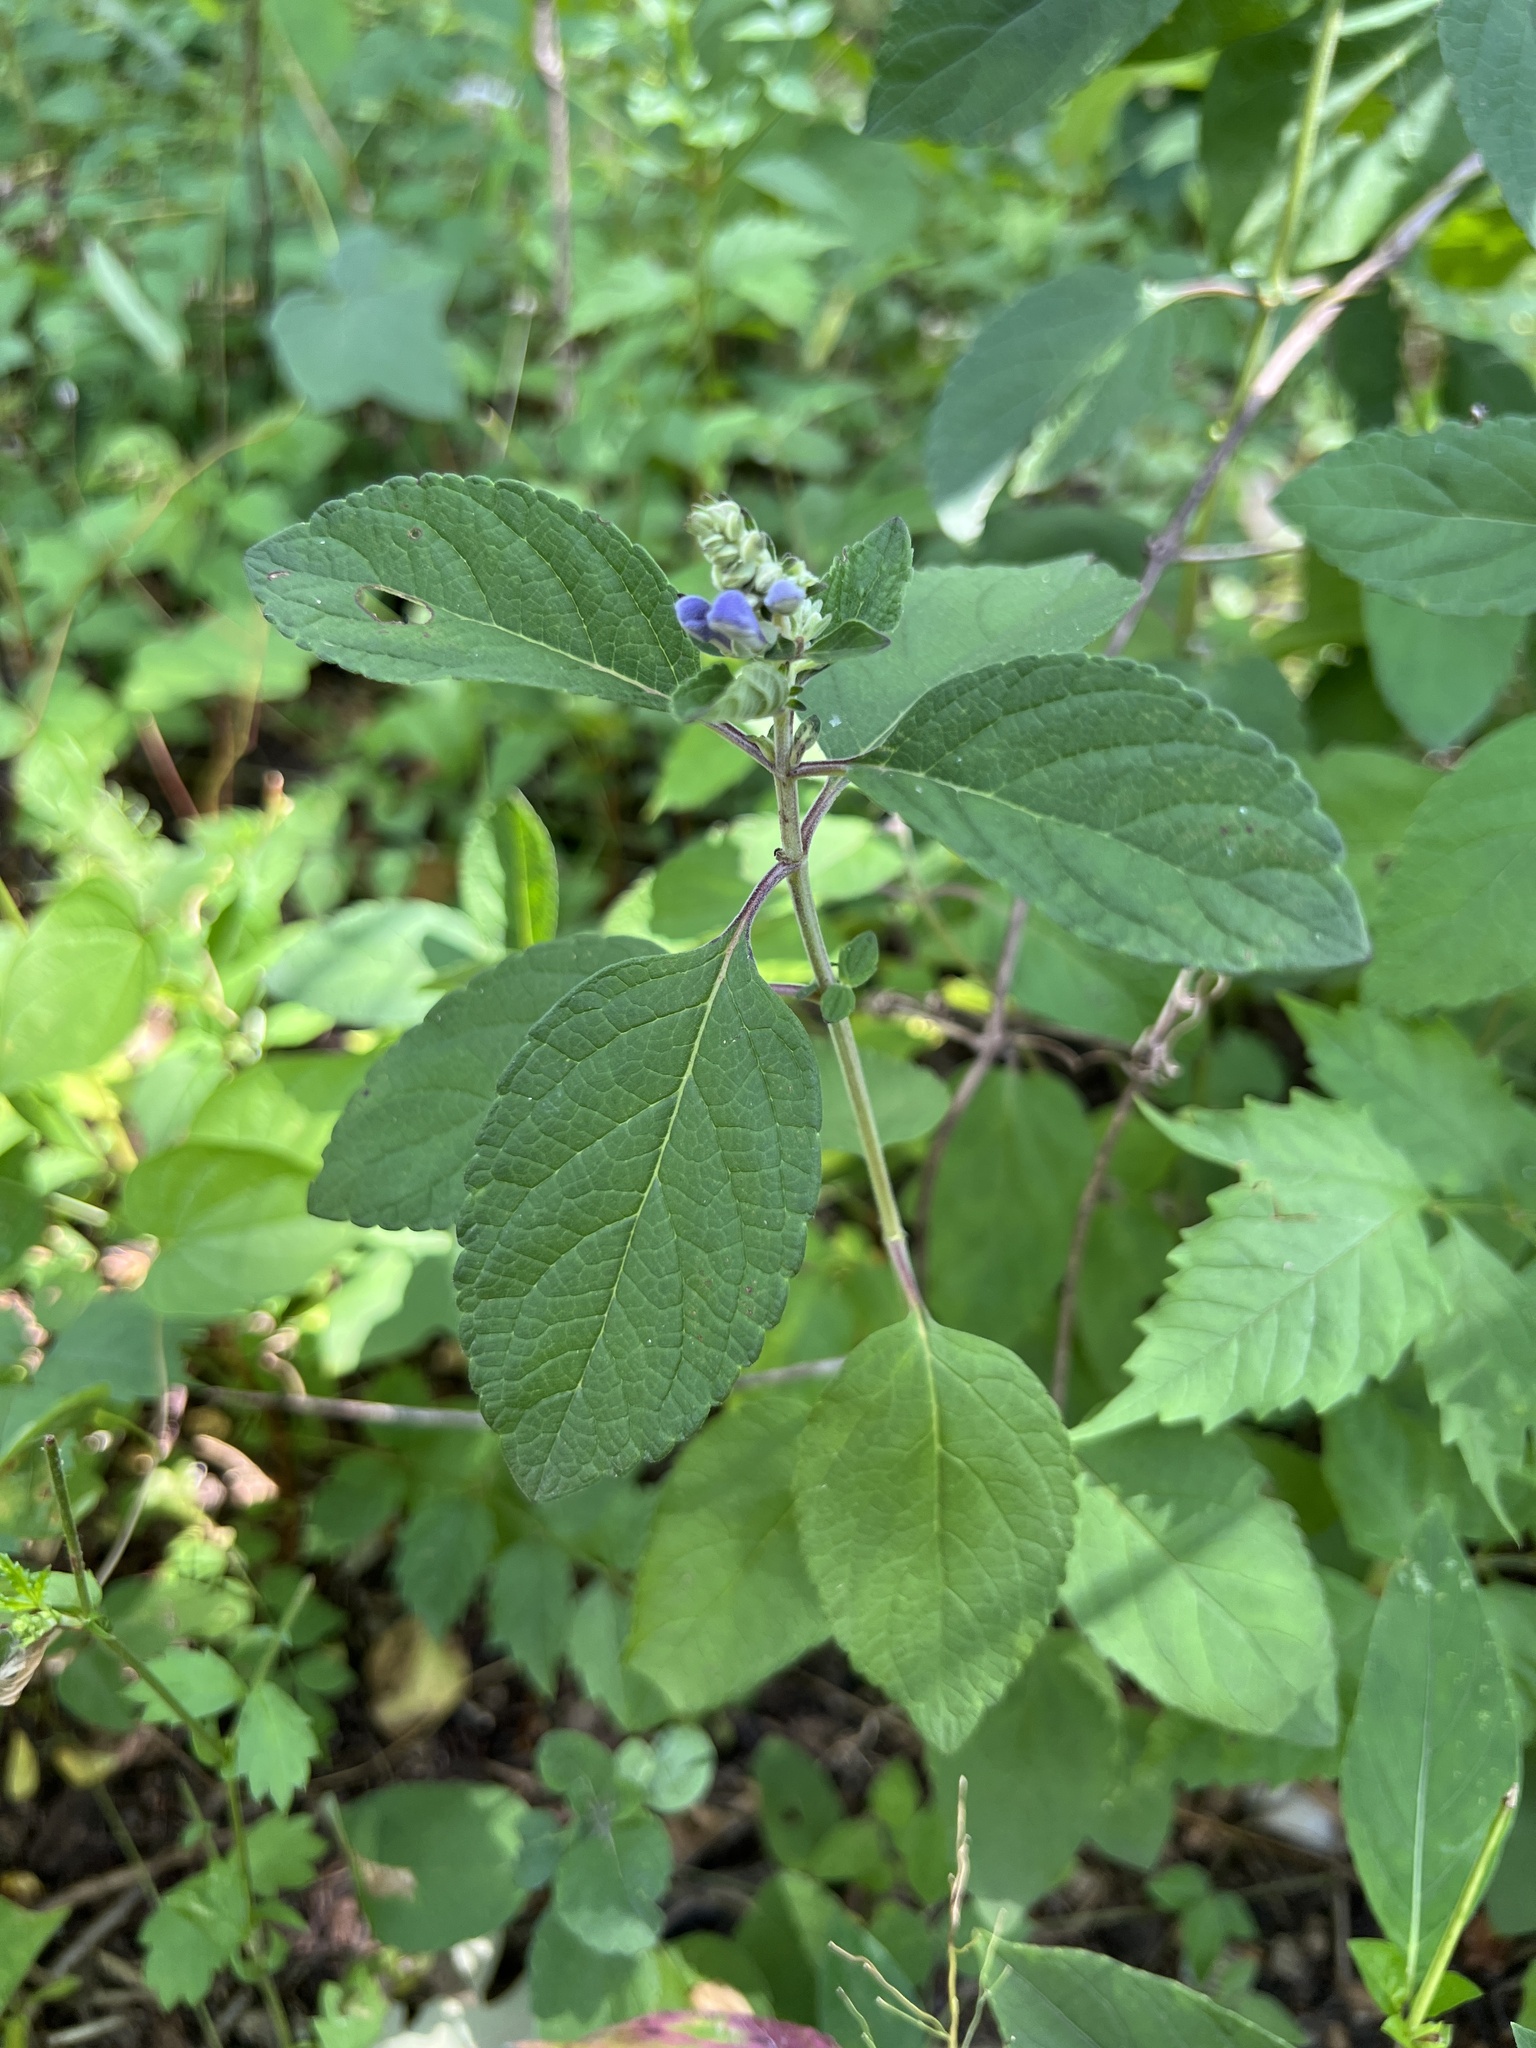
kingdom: Plantae
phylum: Tracheophyta
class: Magnoliopsida
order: Lamiales
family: Lamiaceae
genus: Scutellaria
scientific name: Scutellaria incana
